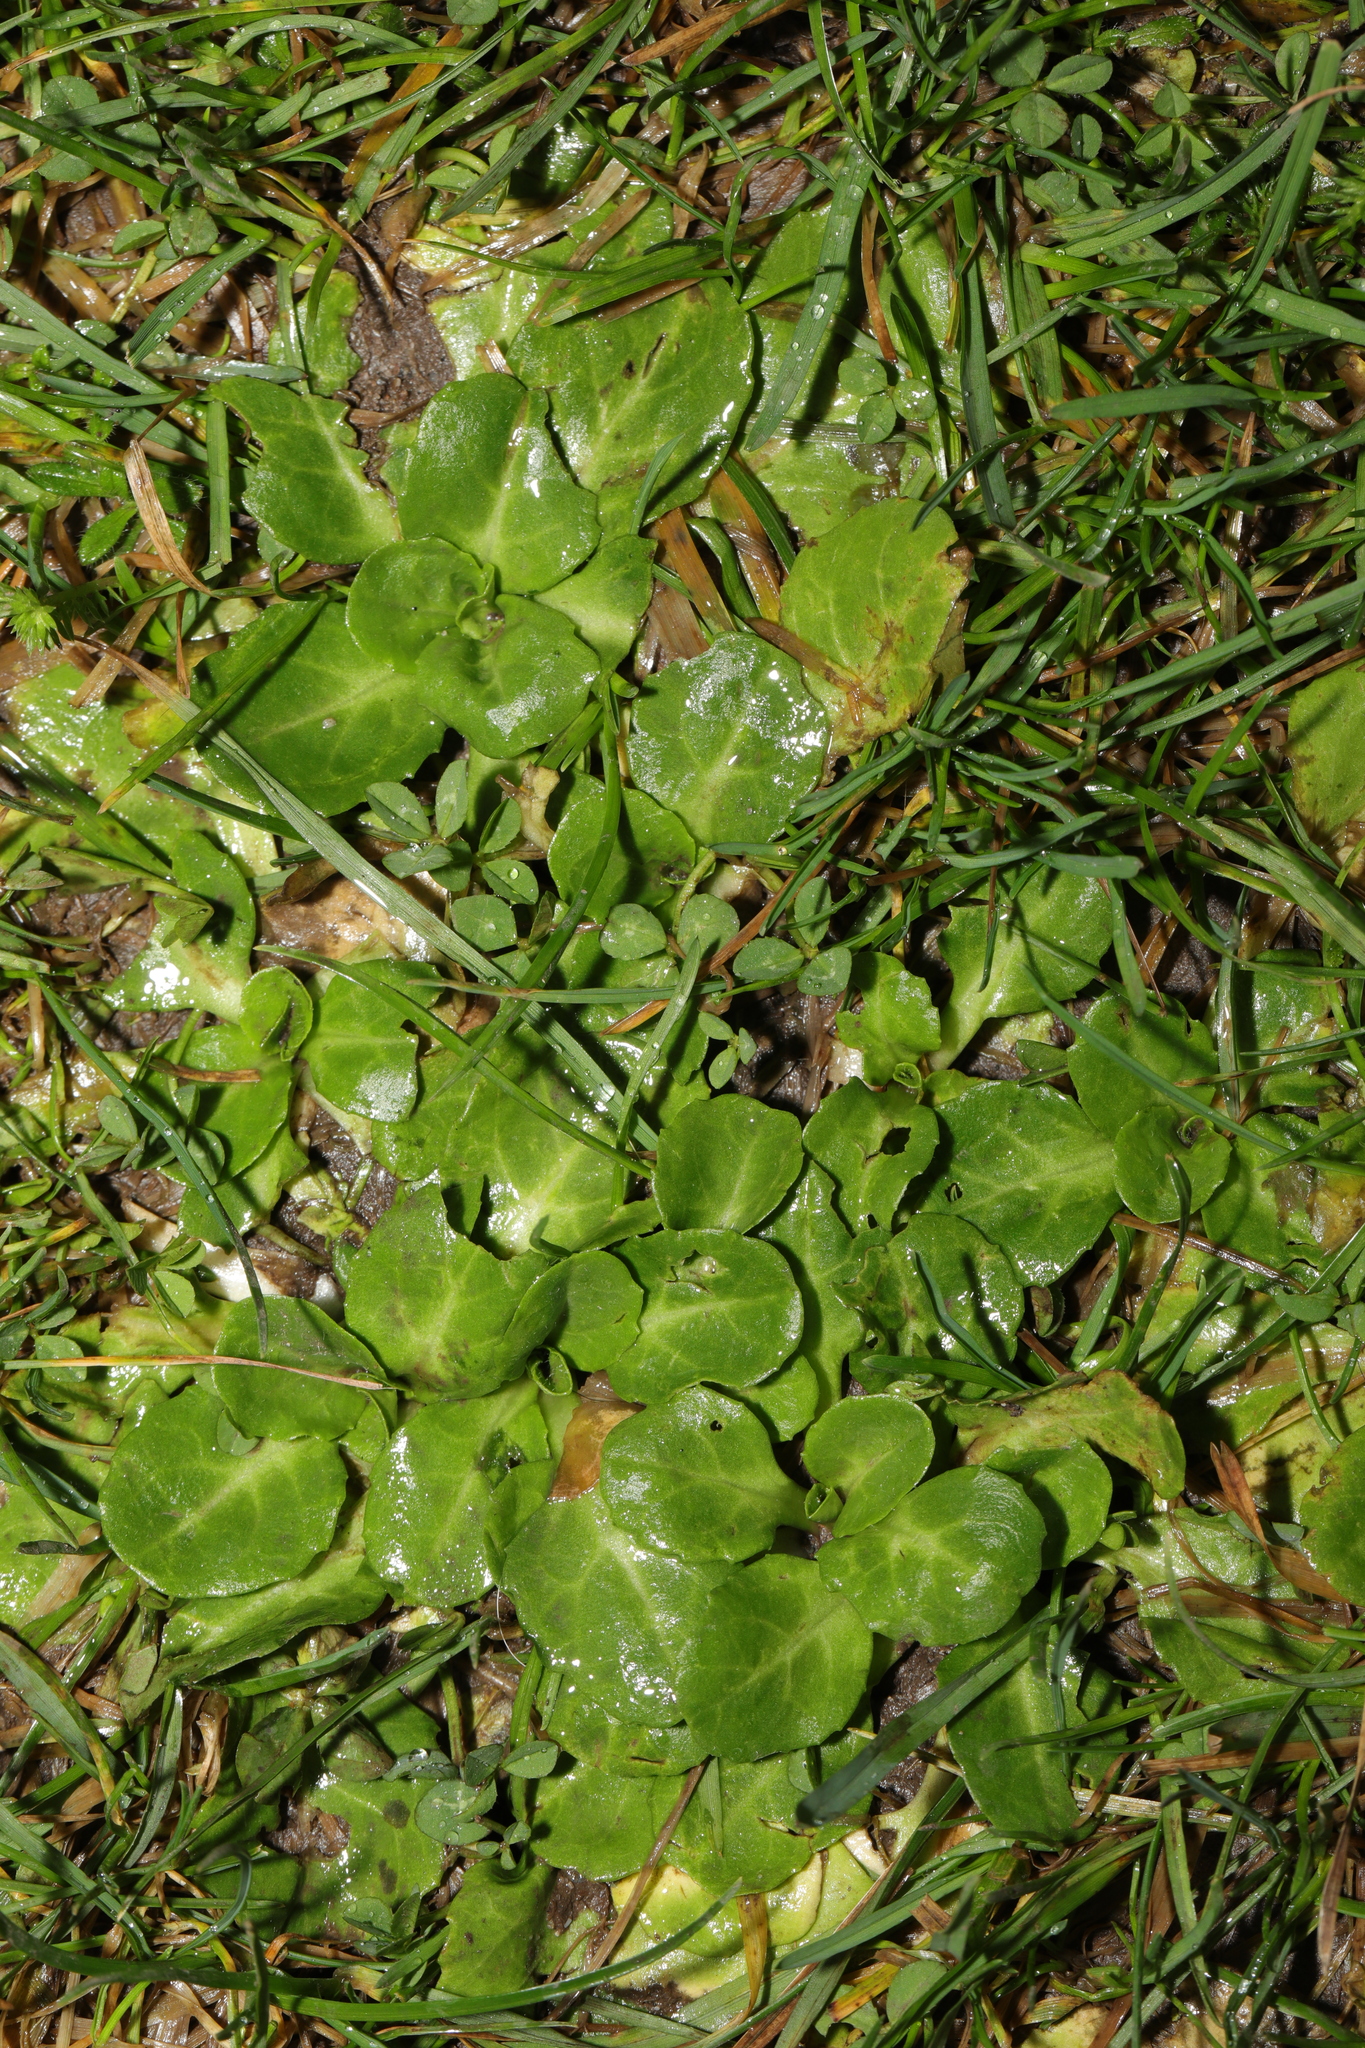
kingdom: Plantae
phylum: Tracheophyta
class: Magnoliopsida
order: Asterales
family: Asteraceae
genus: Bellis
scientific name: Bellis perennis
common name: Lawndaisy
